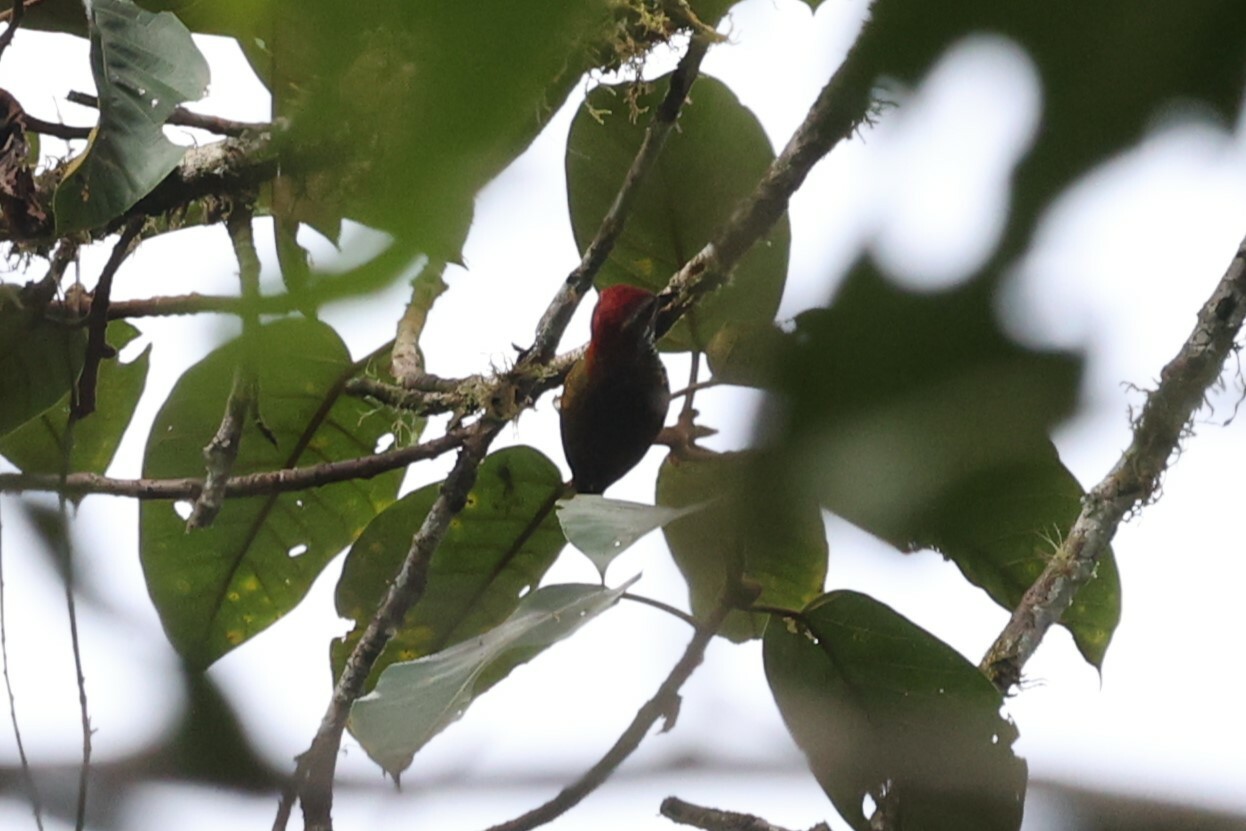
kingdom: Animalia
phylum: Chordata
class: Aves
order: Piciformes
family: Picidae
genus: Veniliornis
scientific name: Veniliornis dignus
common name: Yellow-vented woodpecker
